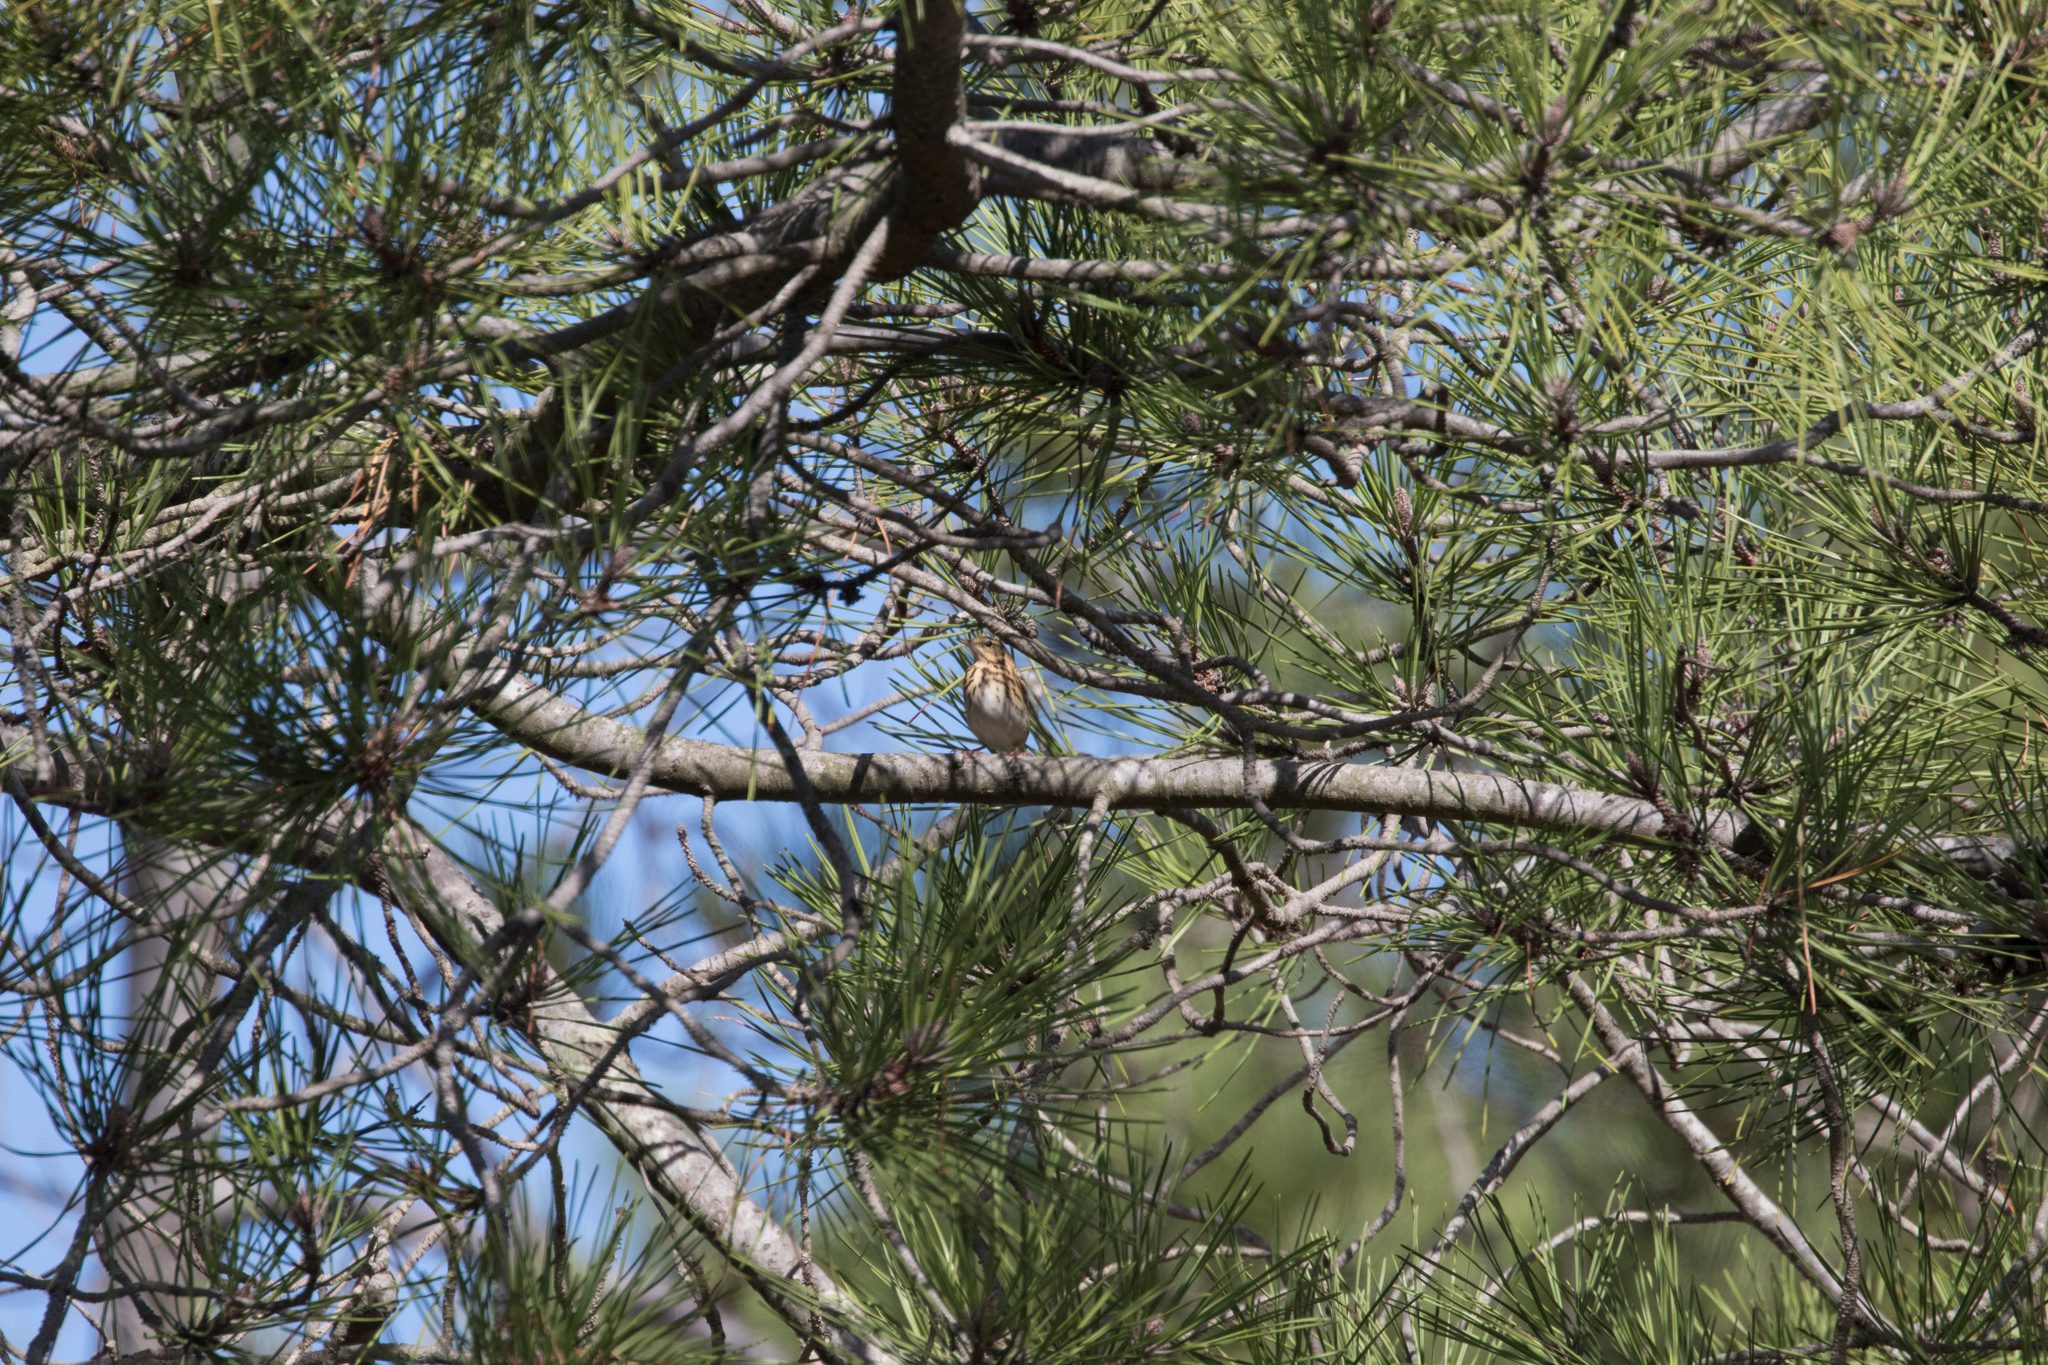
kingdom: Animalia
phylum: Chordata
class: Aves
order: Passeriformes
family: Motacillidae
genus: Anthus
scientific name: Anthus trivialis
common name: Tree pipit
